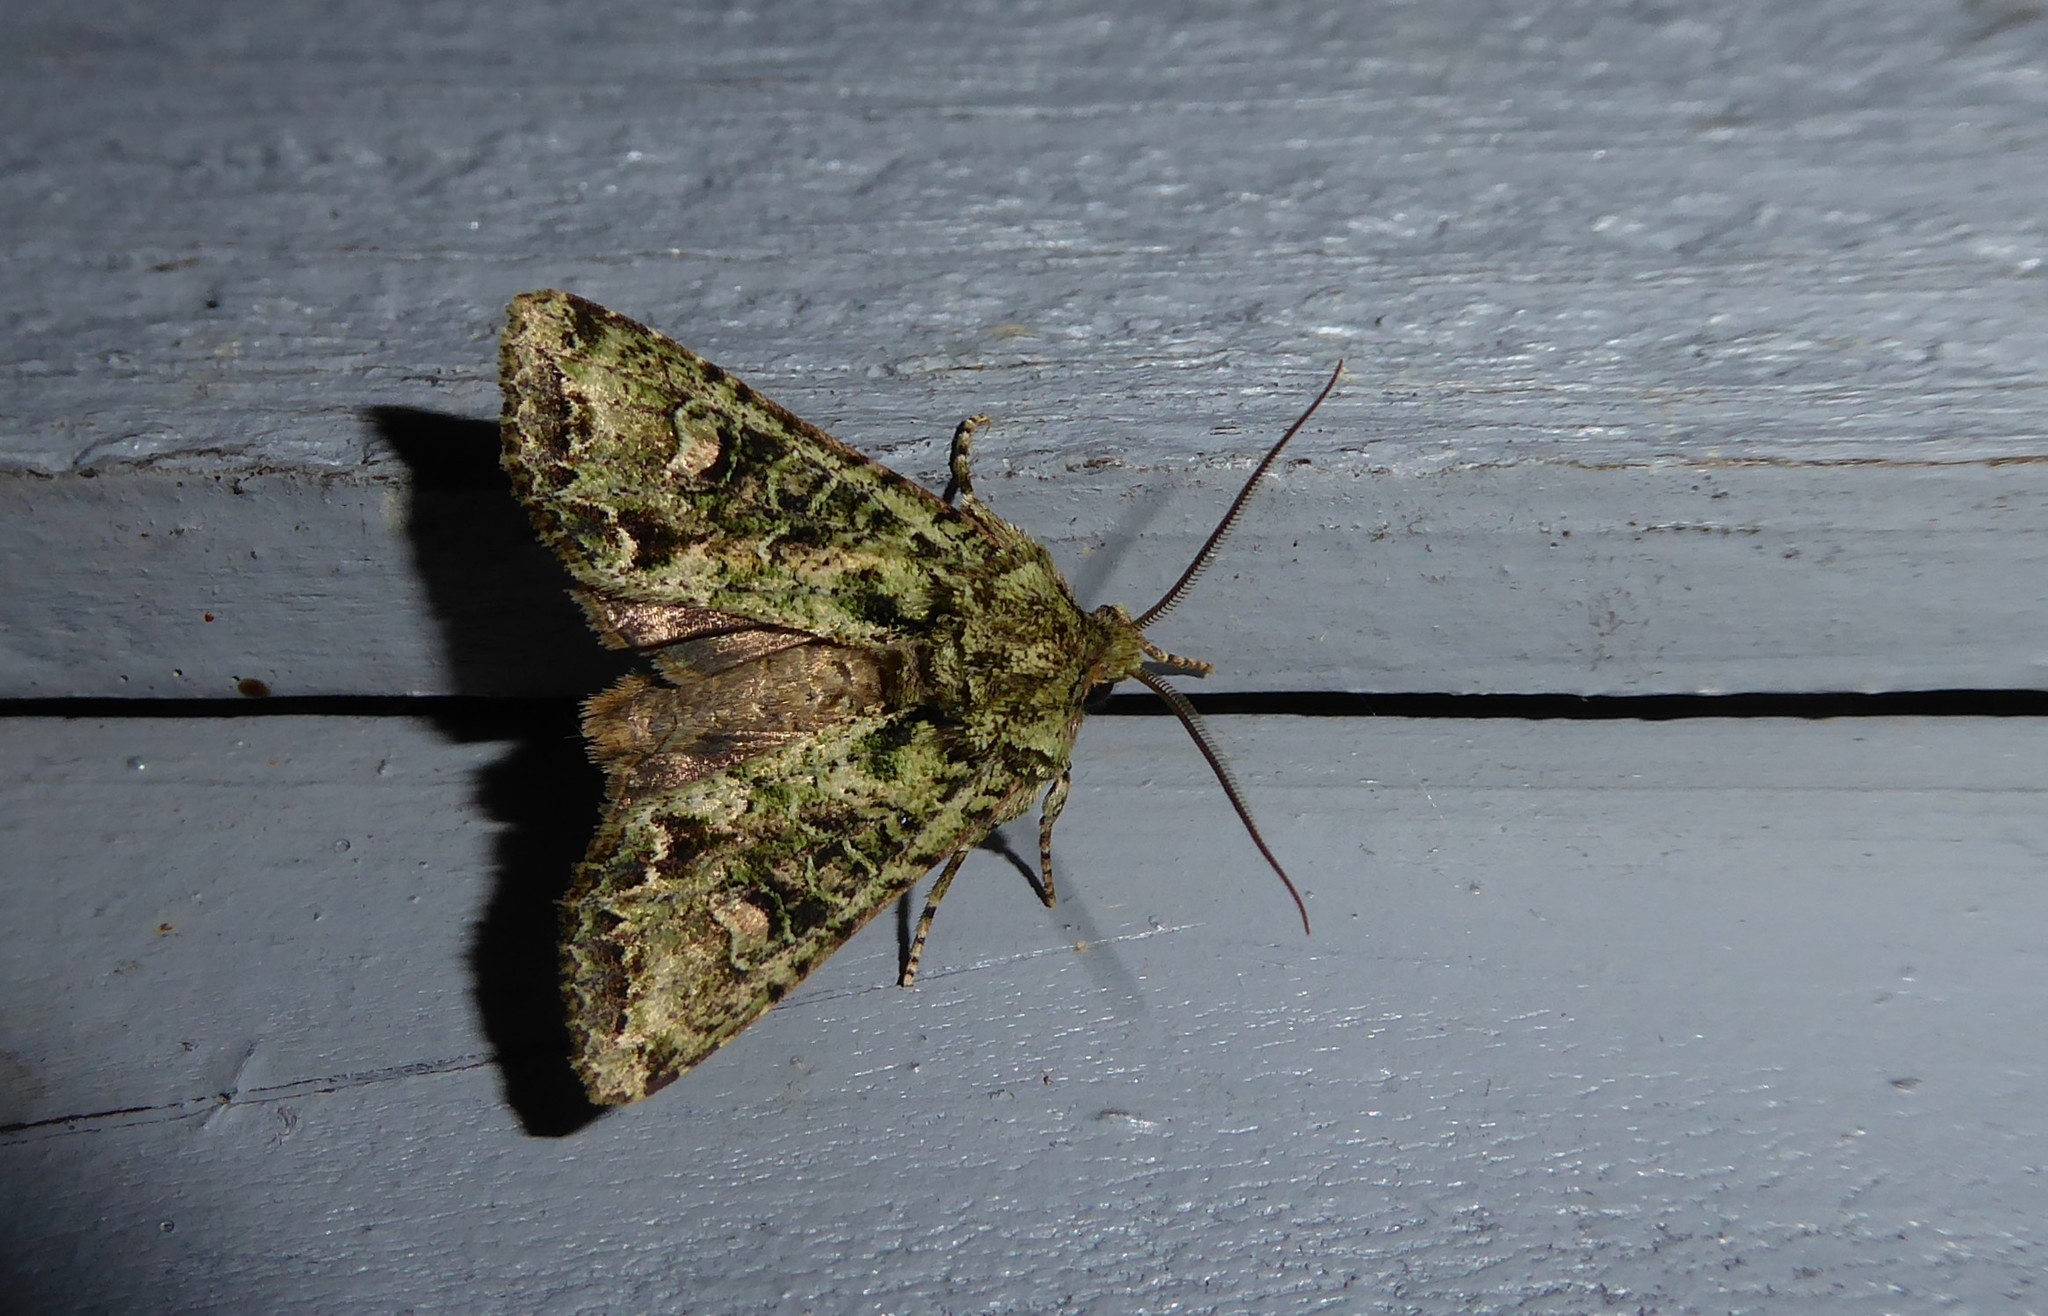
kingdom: Animalia
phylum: Arthropoda
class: Insecta
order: Lepidoptera
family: Noctuidae
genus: Ichneutica
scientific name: Ichneutica
